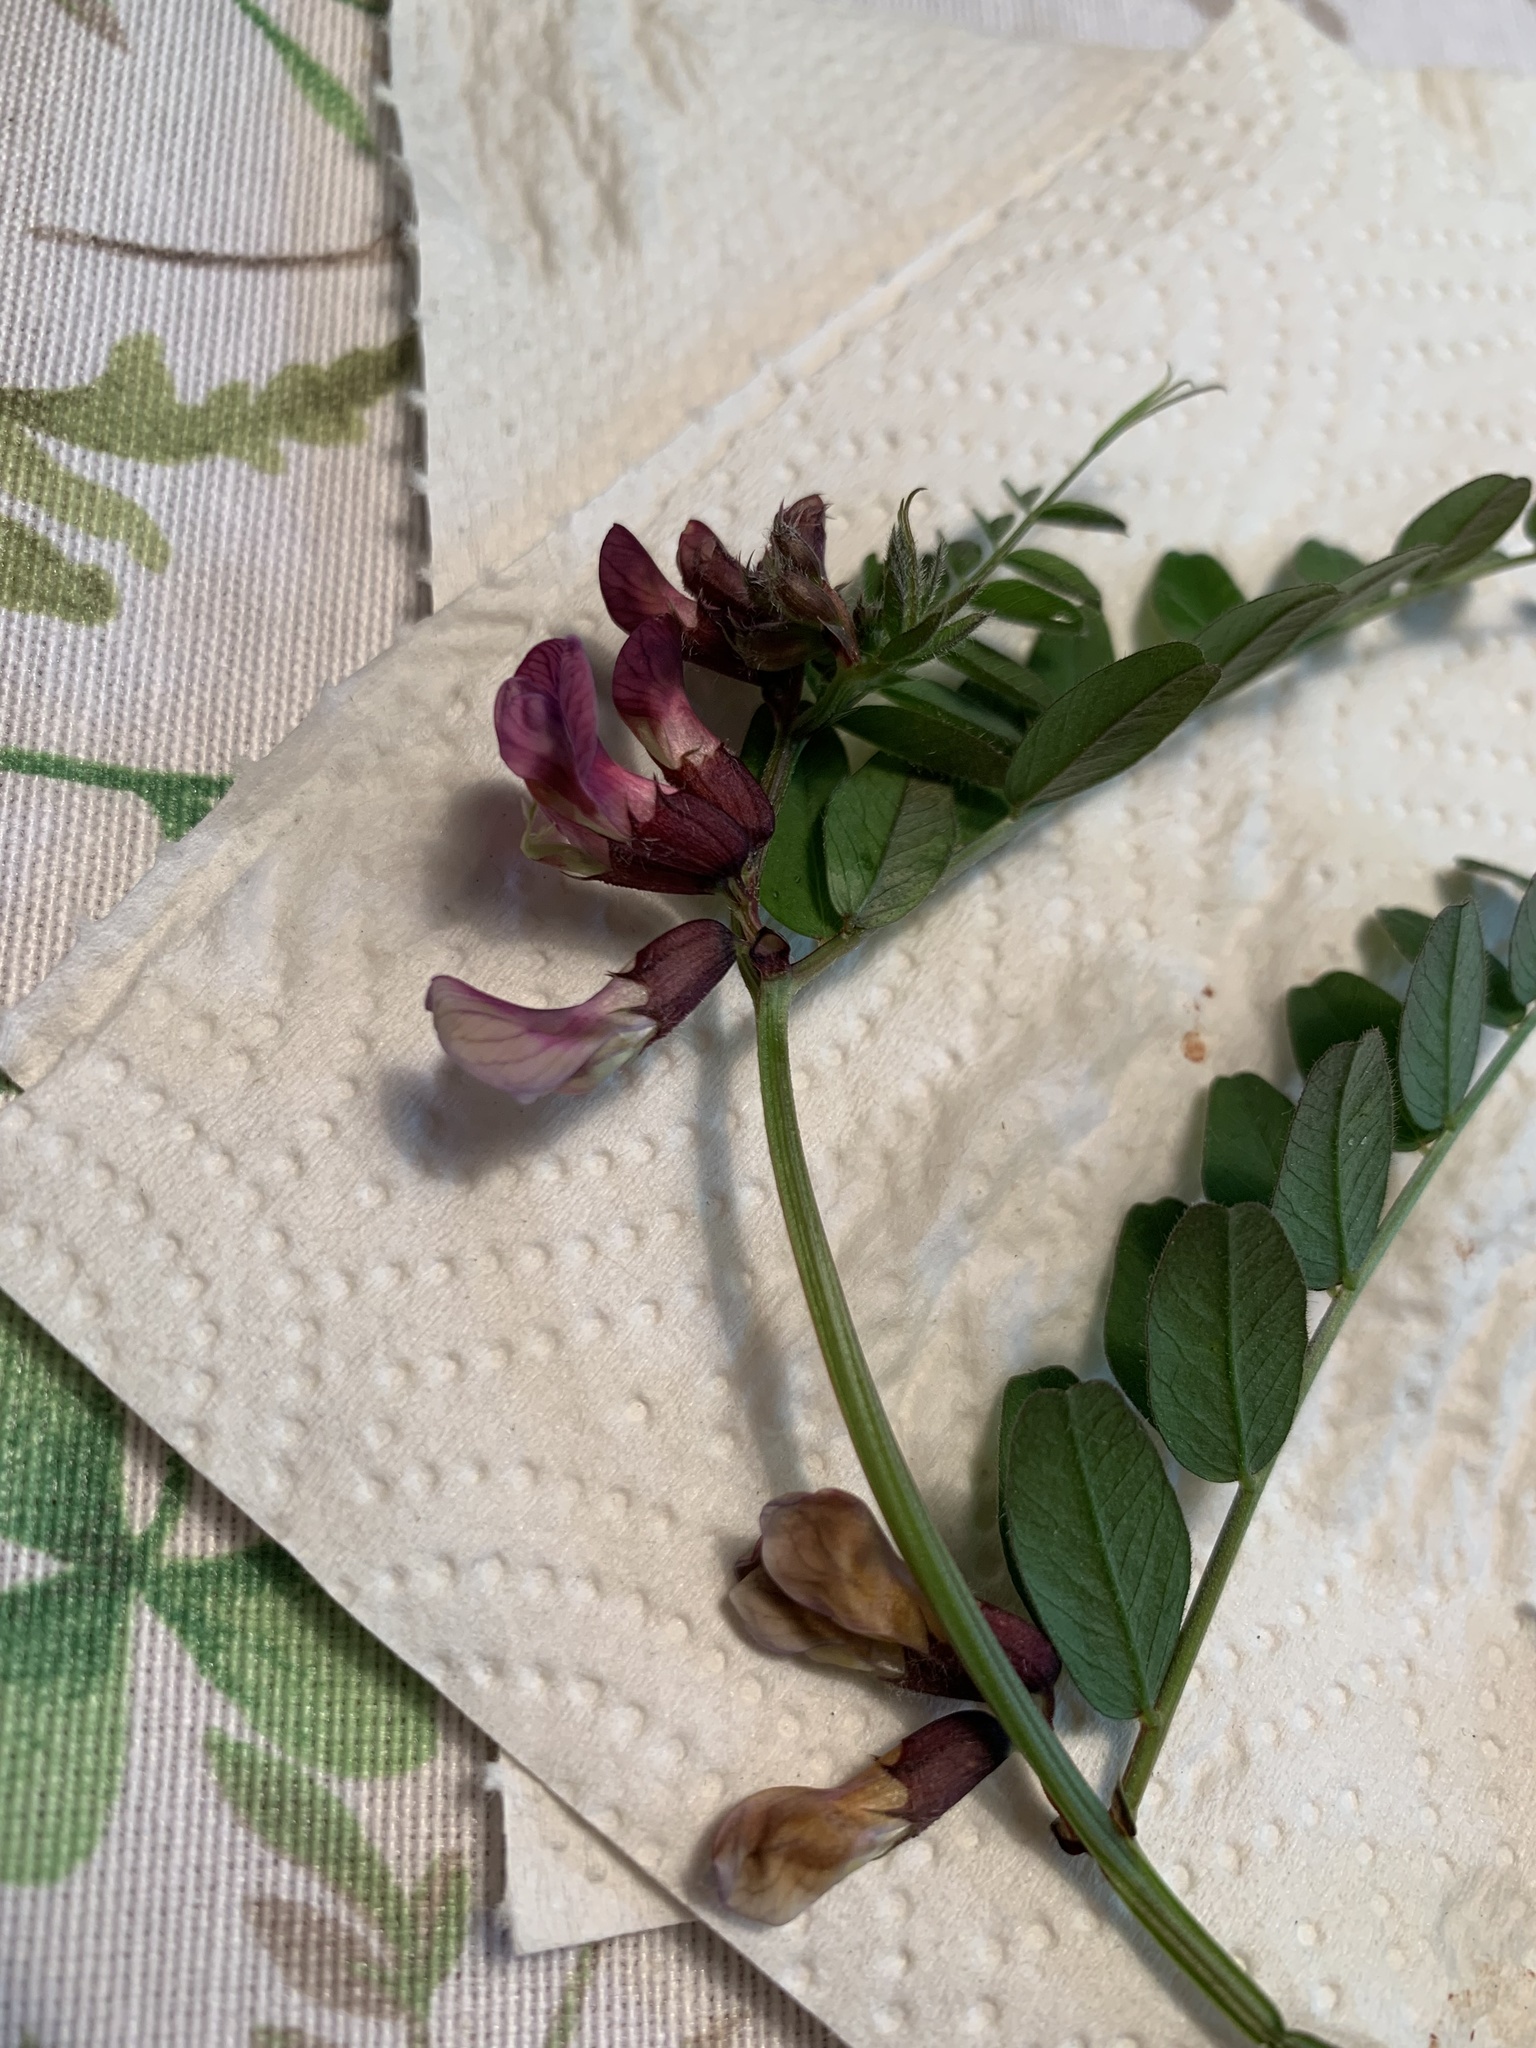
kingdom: Plantae
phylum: Tracheophyta
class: Magnoliopsida
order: Fabales
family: Fabaceae
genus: Vicia
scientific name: Vicia sepium
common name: Bush vetch
